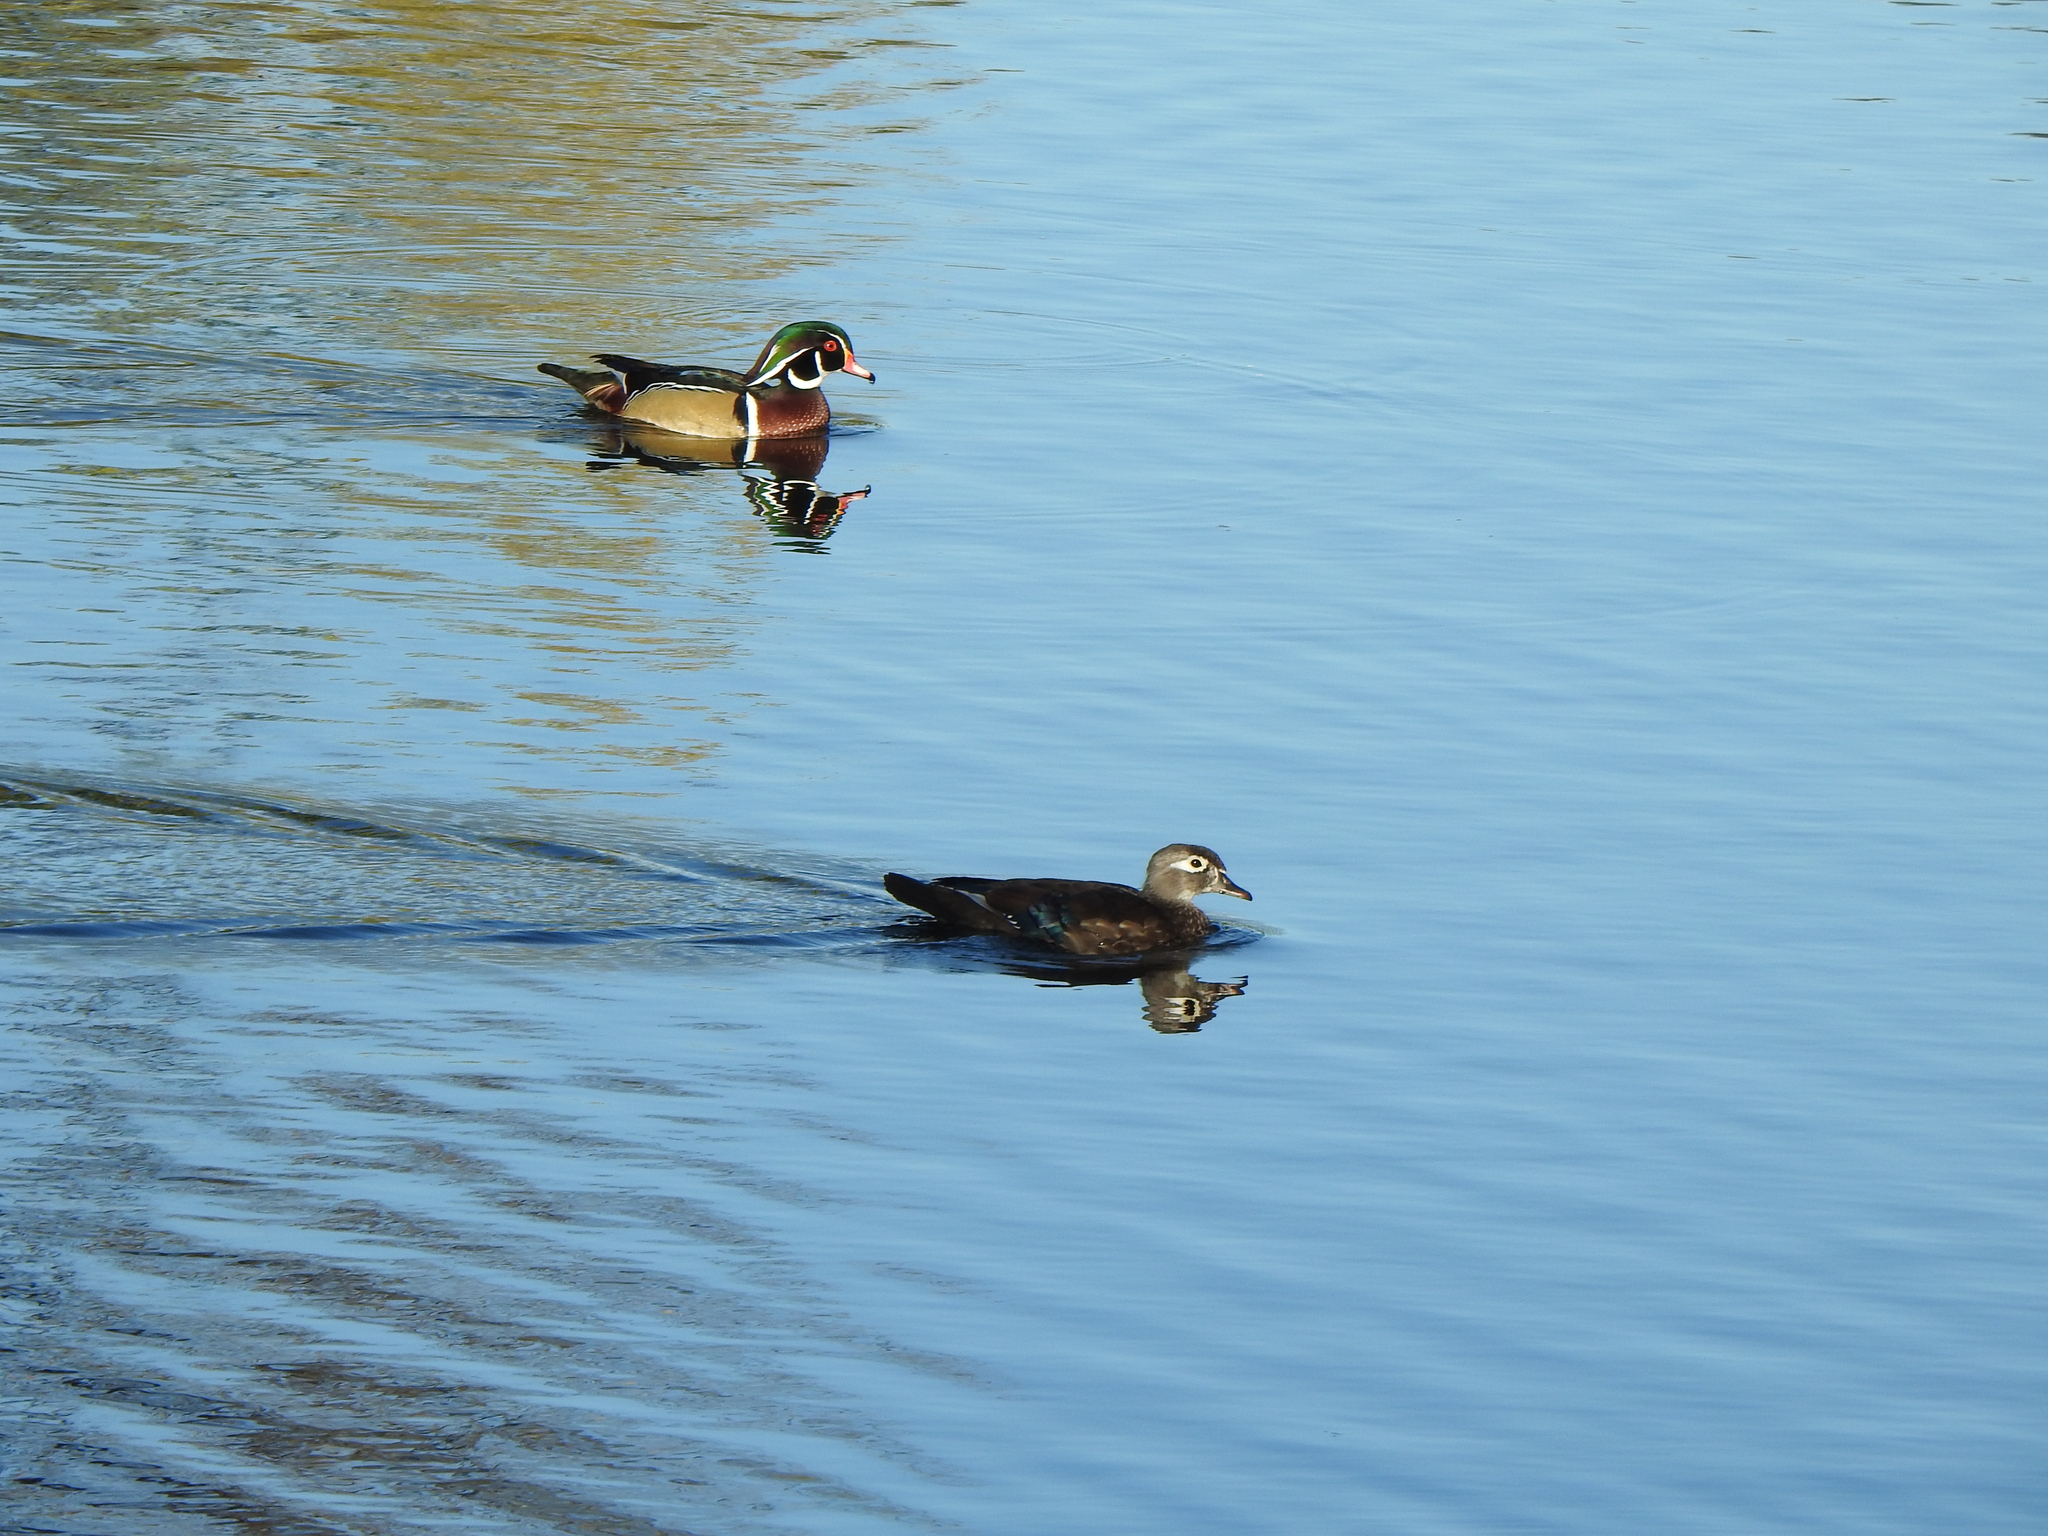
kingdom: Animalia
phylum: Chordata
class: Aves
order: Anseriformes
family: Anatidae
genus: Aix
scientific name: Aix sponsa
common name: Wood duck
